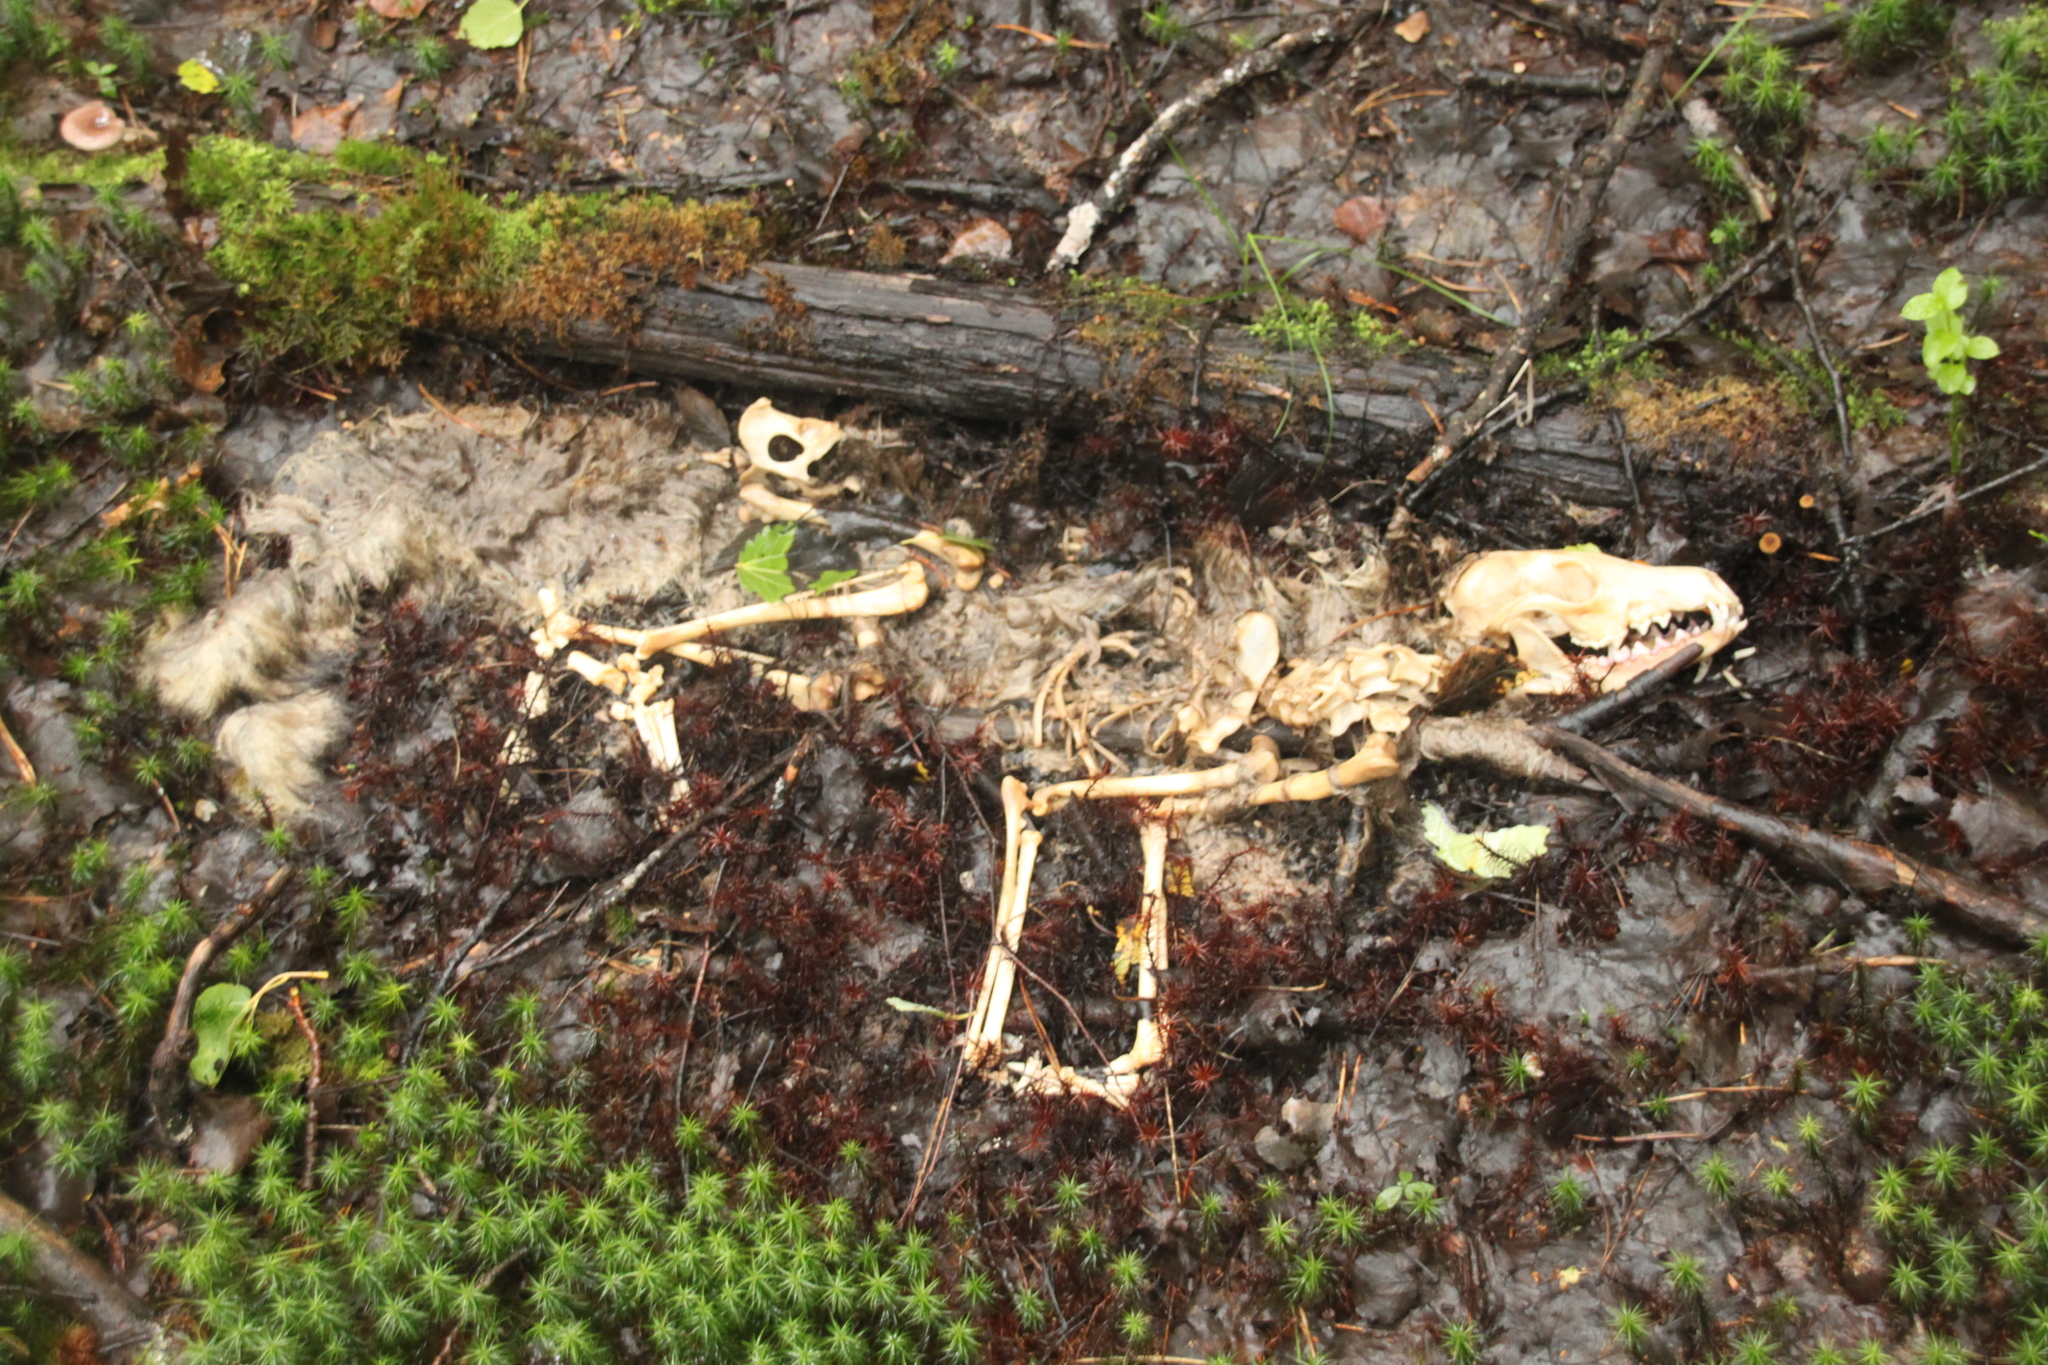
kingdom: Animalia
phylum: Chordata
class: Mammalia
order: Carnivora
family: Canidae
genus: Vulpes
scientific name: Vulpes vulpes
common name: Red fox
